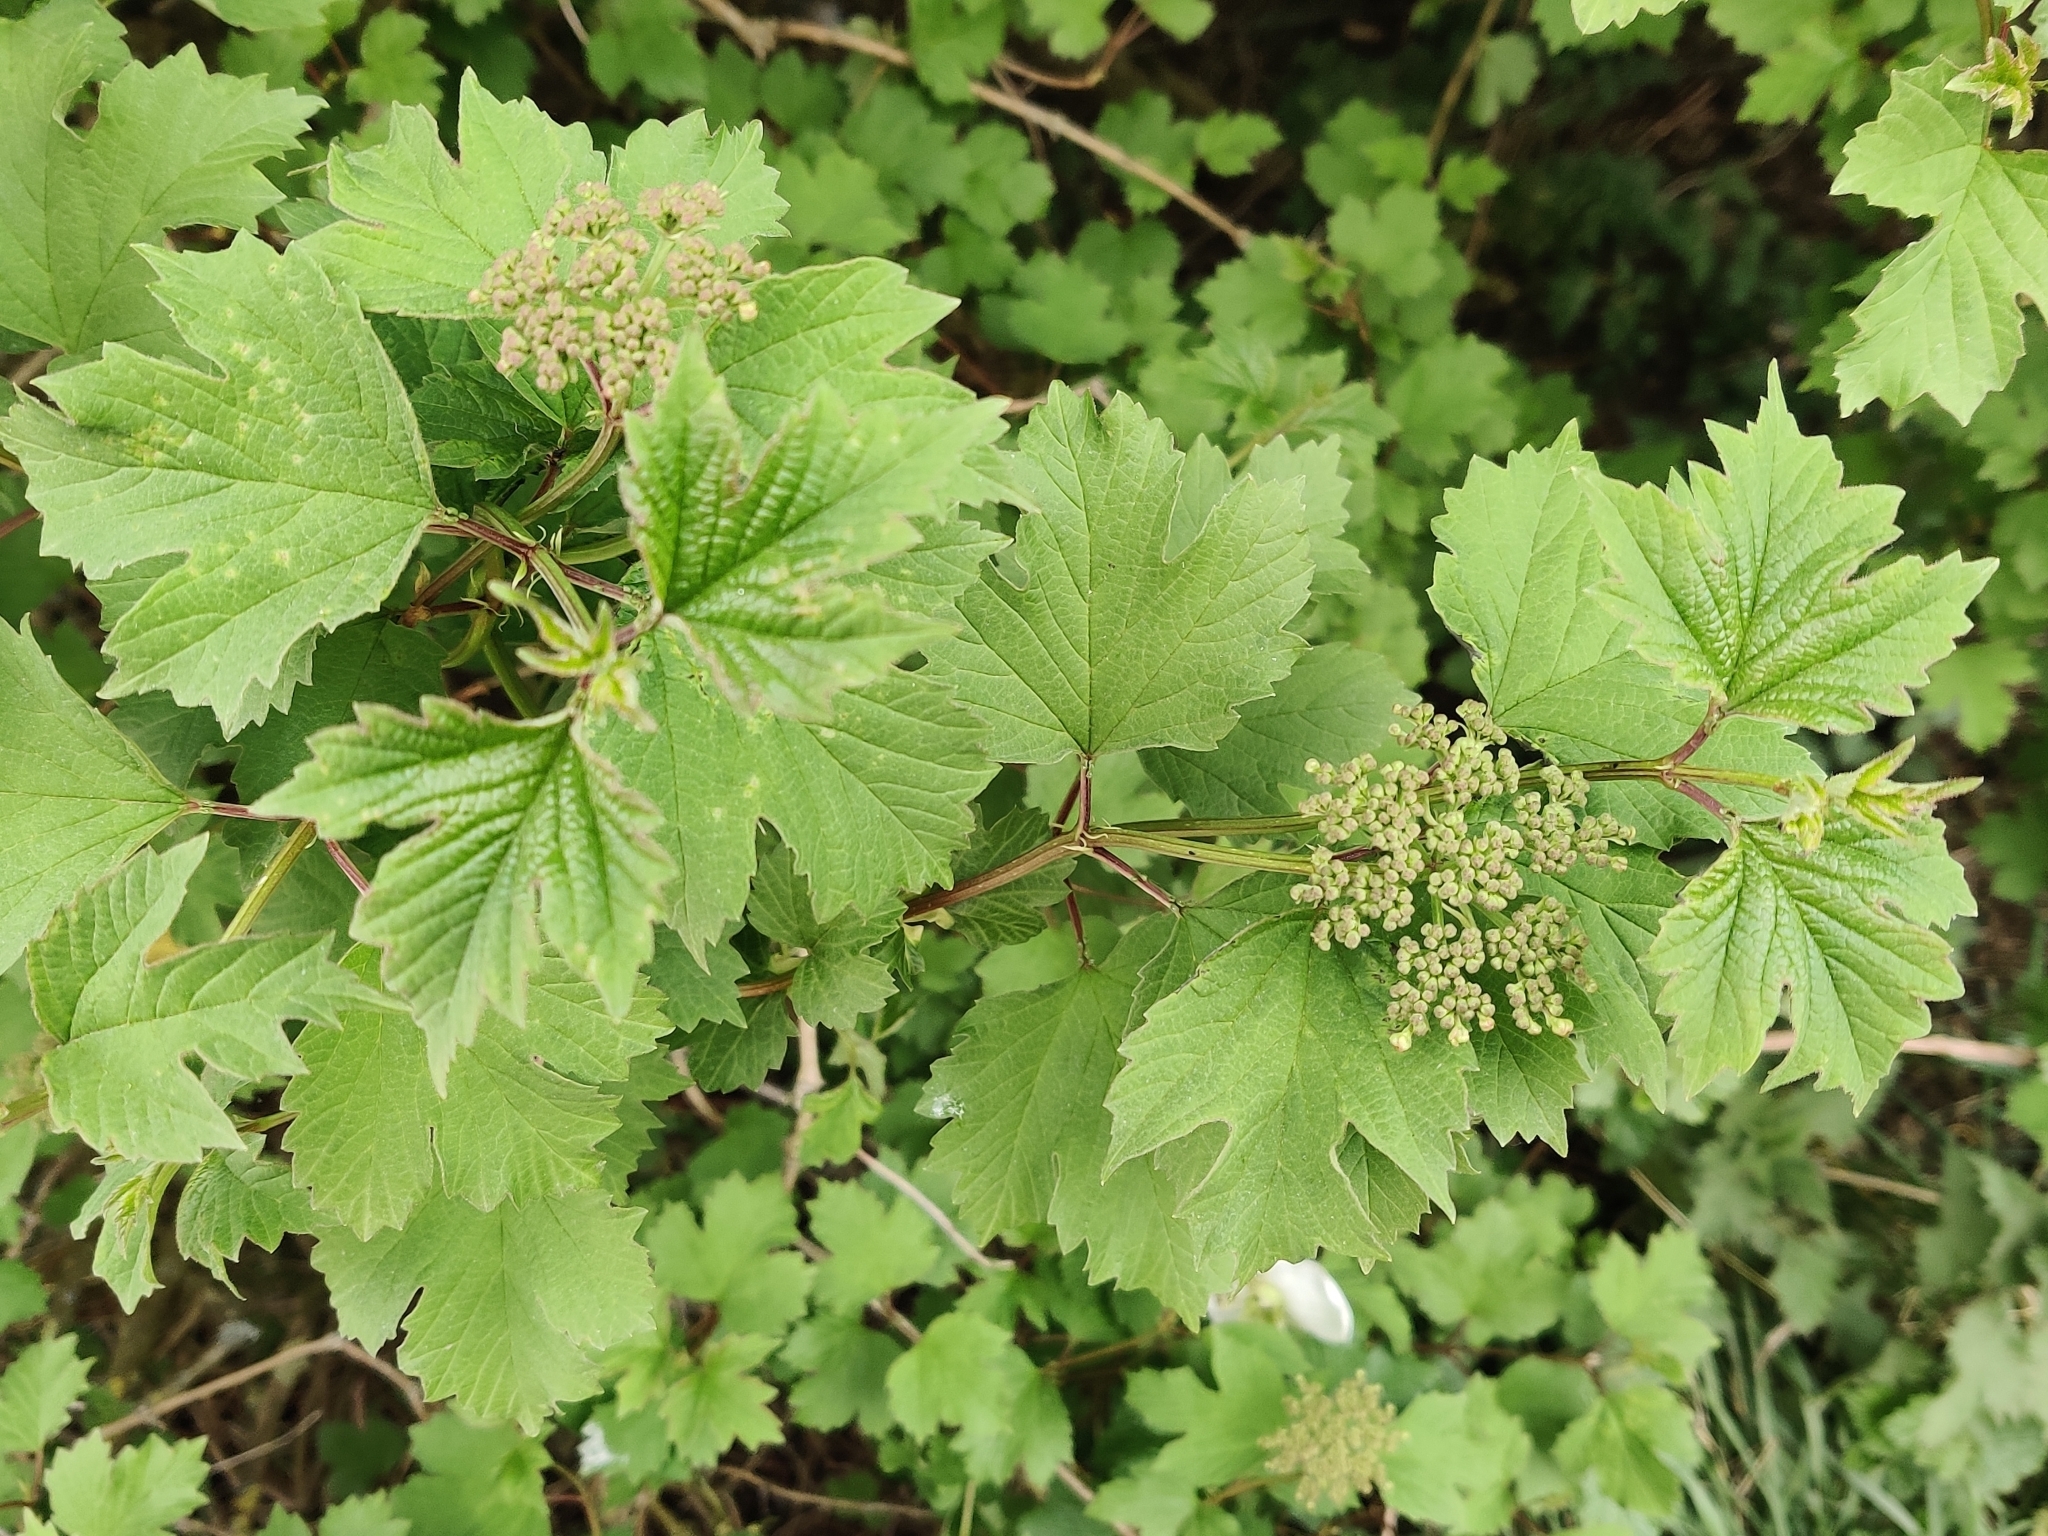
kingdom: Plantae
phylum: Tracheophyta
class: Magnoliopsida
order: Dipsacales
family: Viburnaceae
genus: Viburnum
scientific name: Viburnum opulus
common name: Guelder-rose
